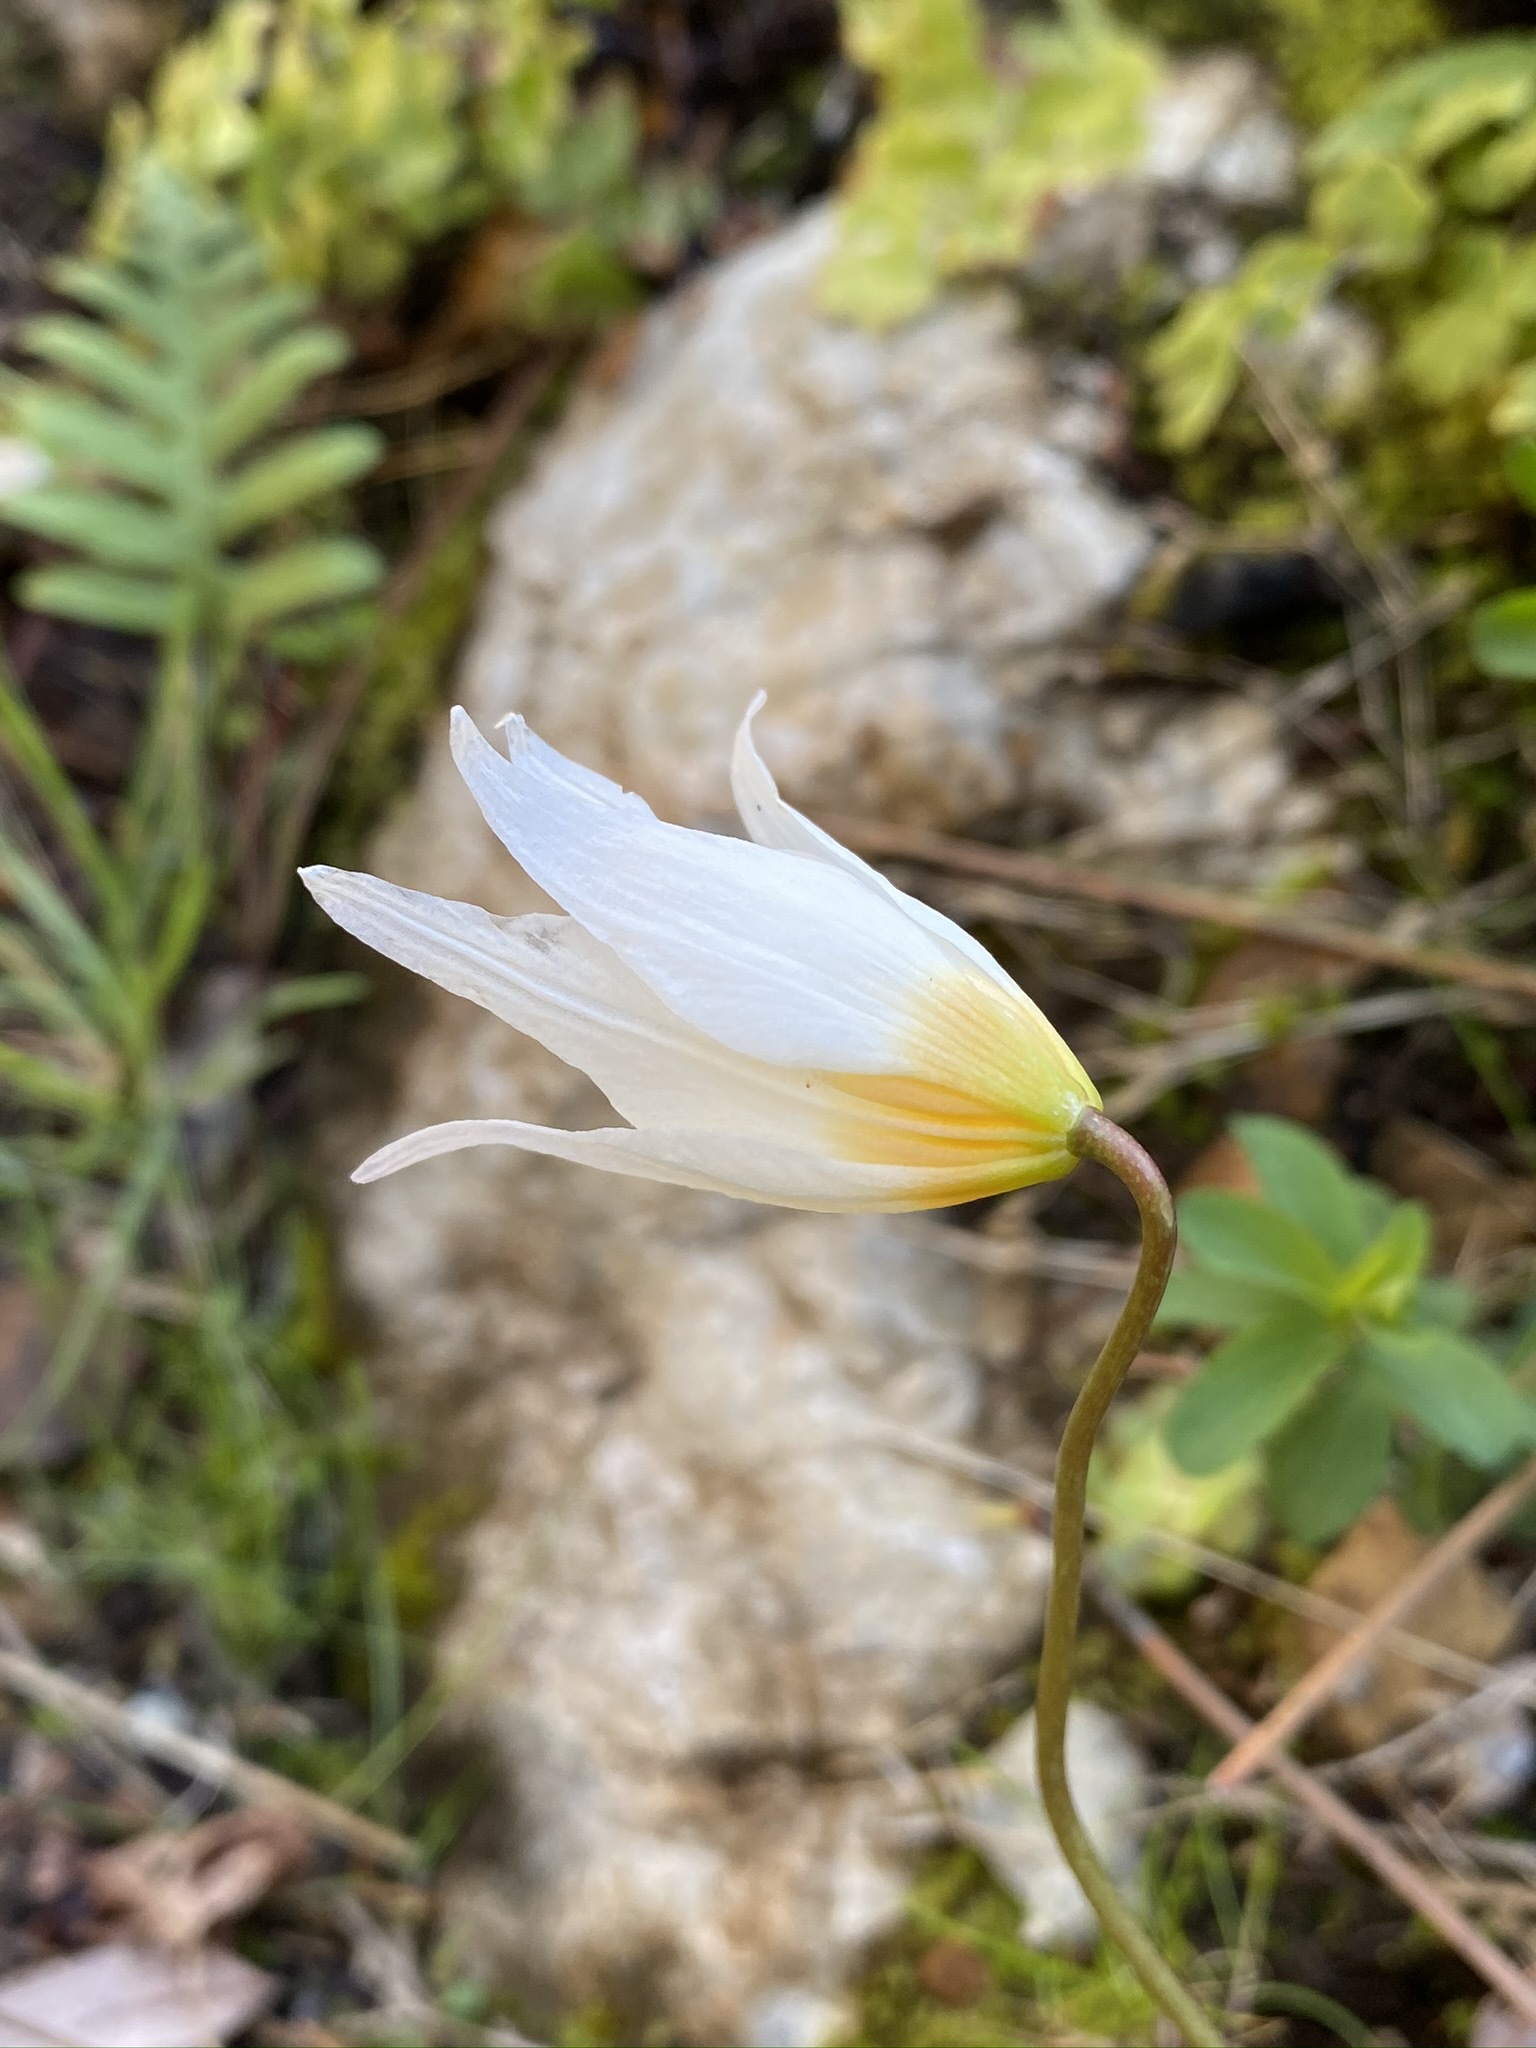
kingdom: Plantae
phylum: Tracheophyta
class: Liliopsida
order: Liliales
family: Liliaceae
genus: Erythronium
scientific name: Erythronium shastense
